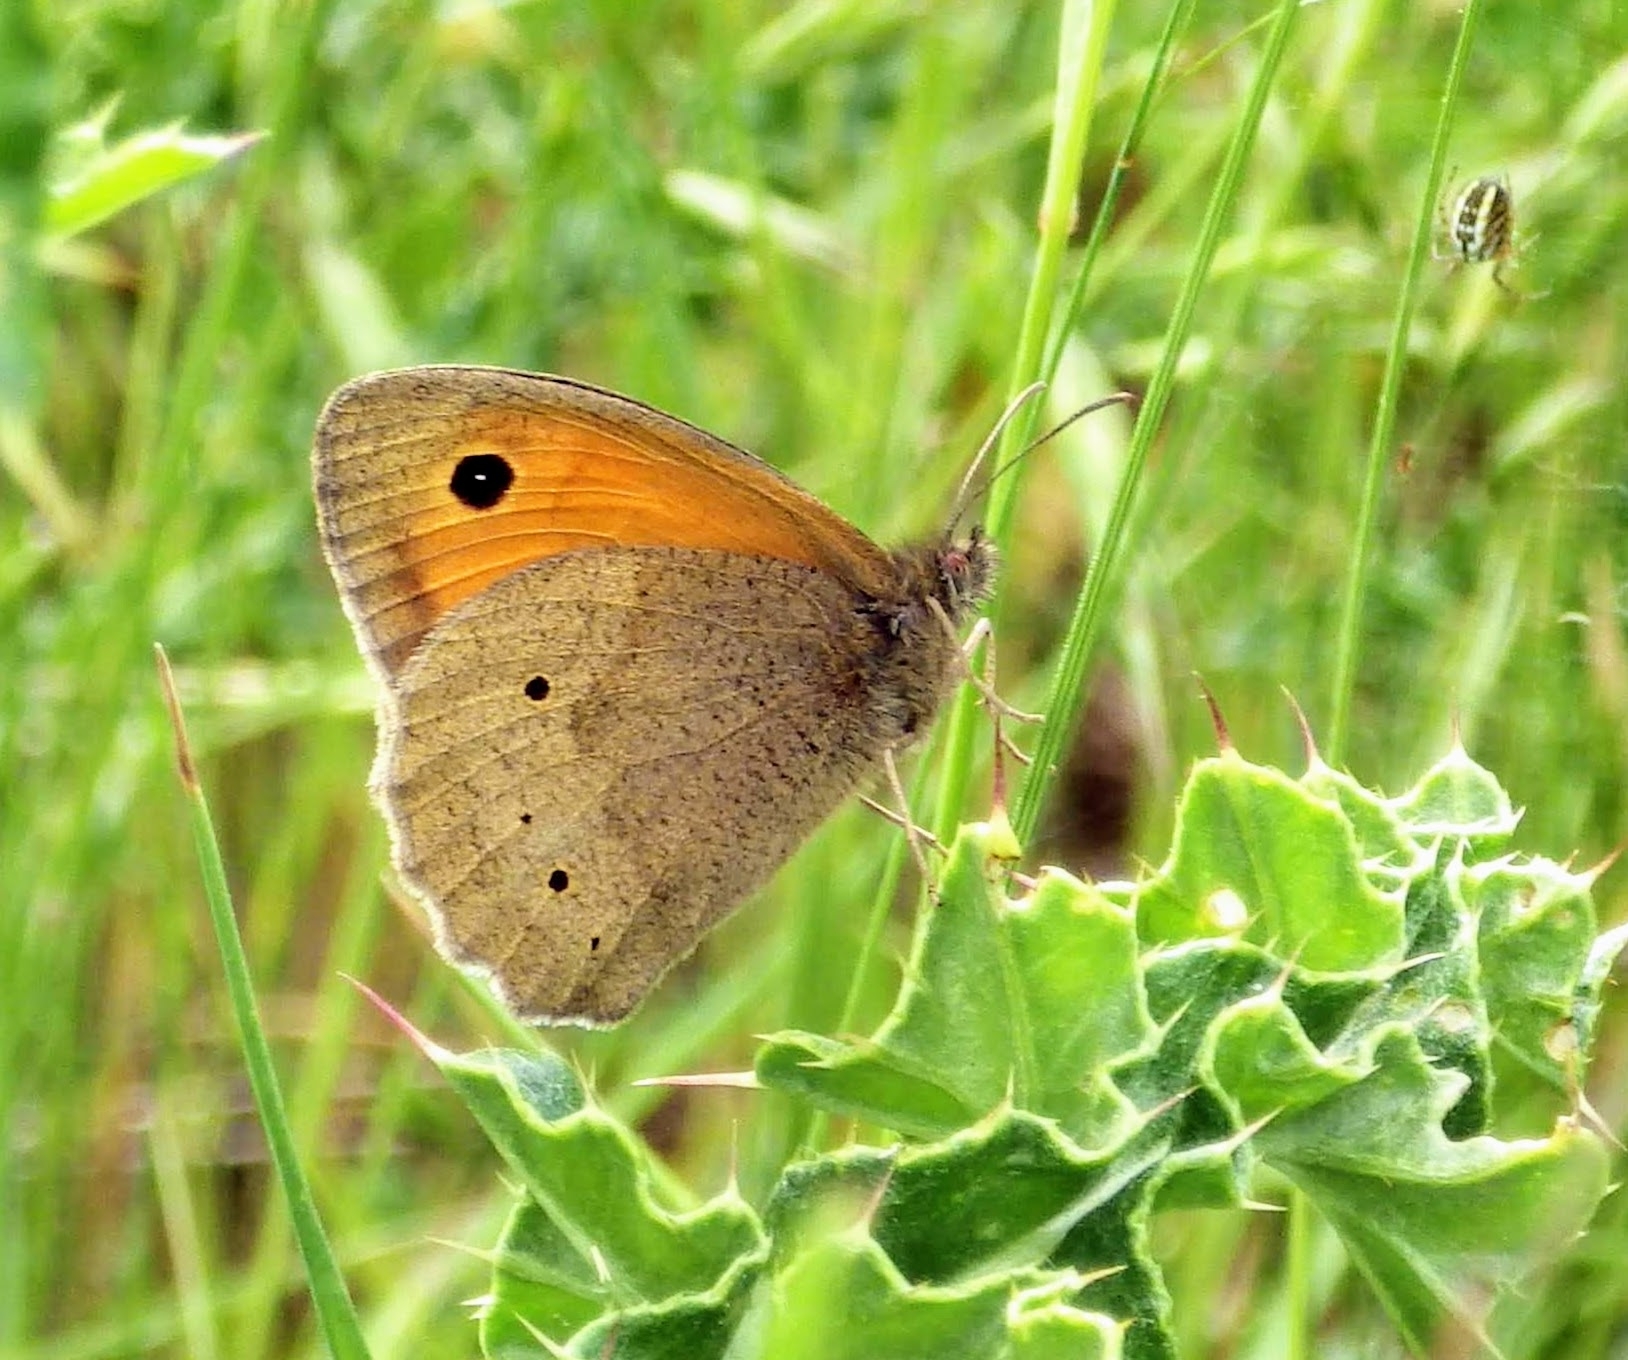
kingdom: Animalia
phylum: Arthropoda
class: Insecta
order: Lepidoptera
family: Nymphalidae
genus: Maniola
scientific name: Maniola jurtina
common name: Meadow brown
